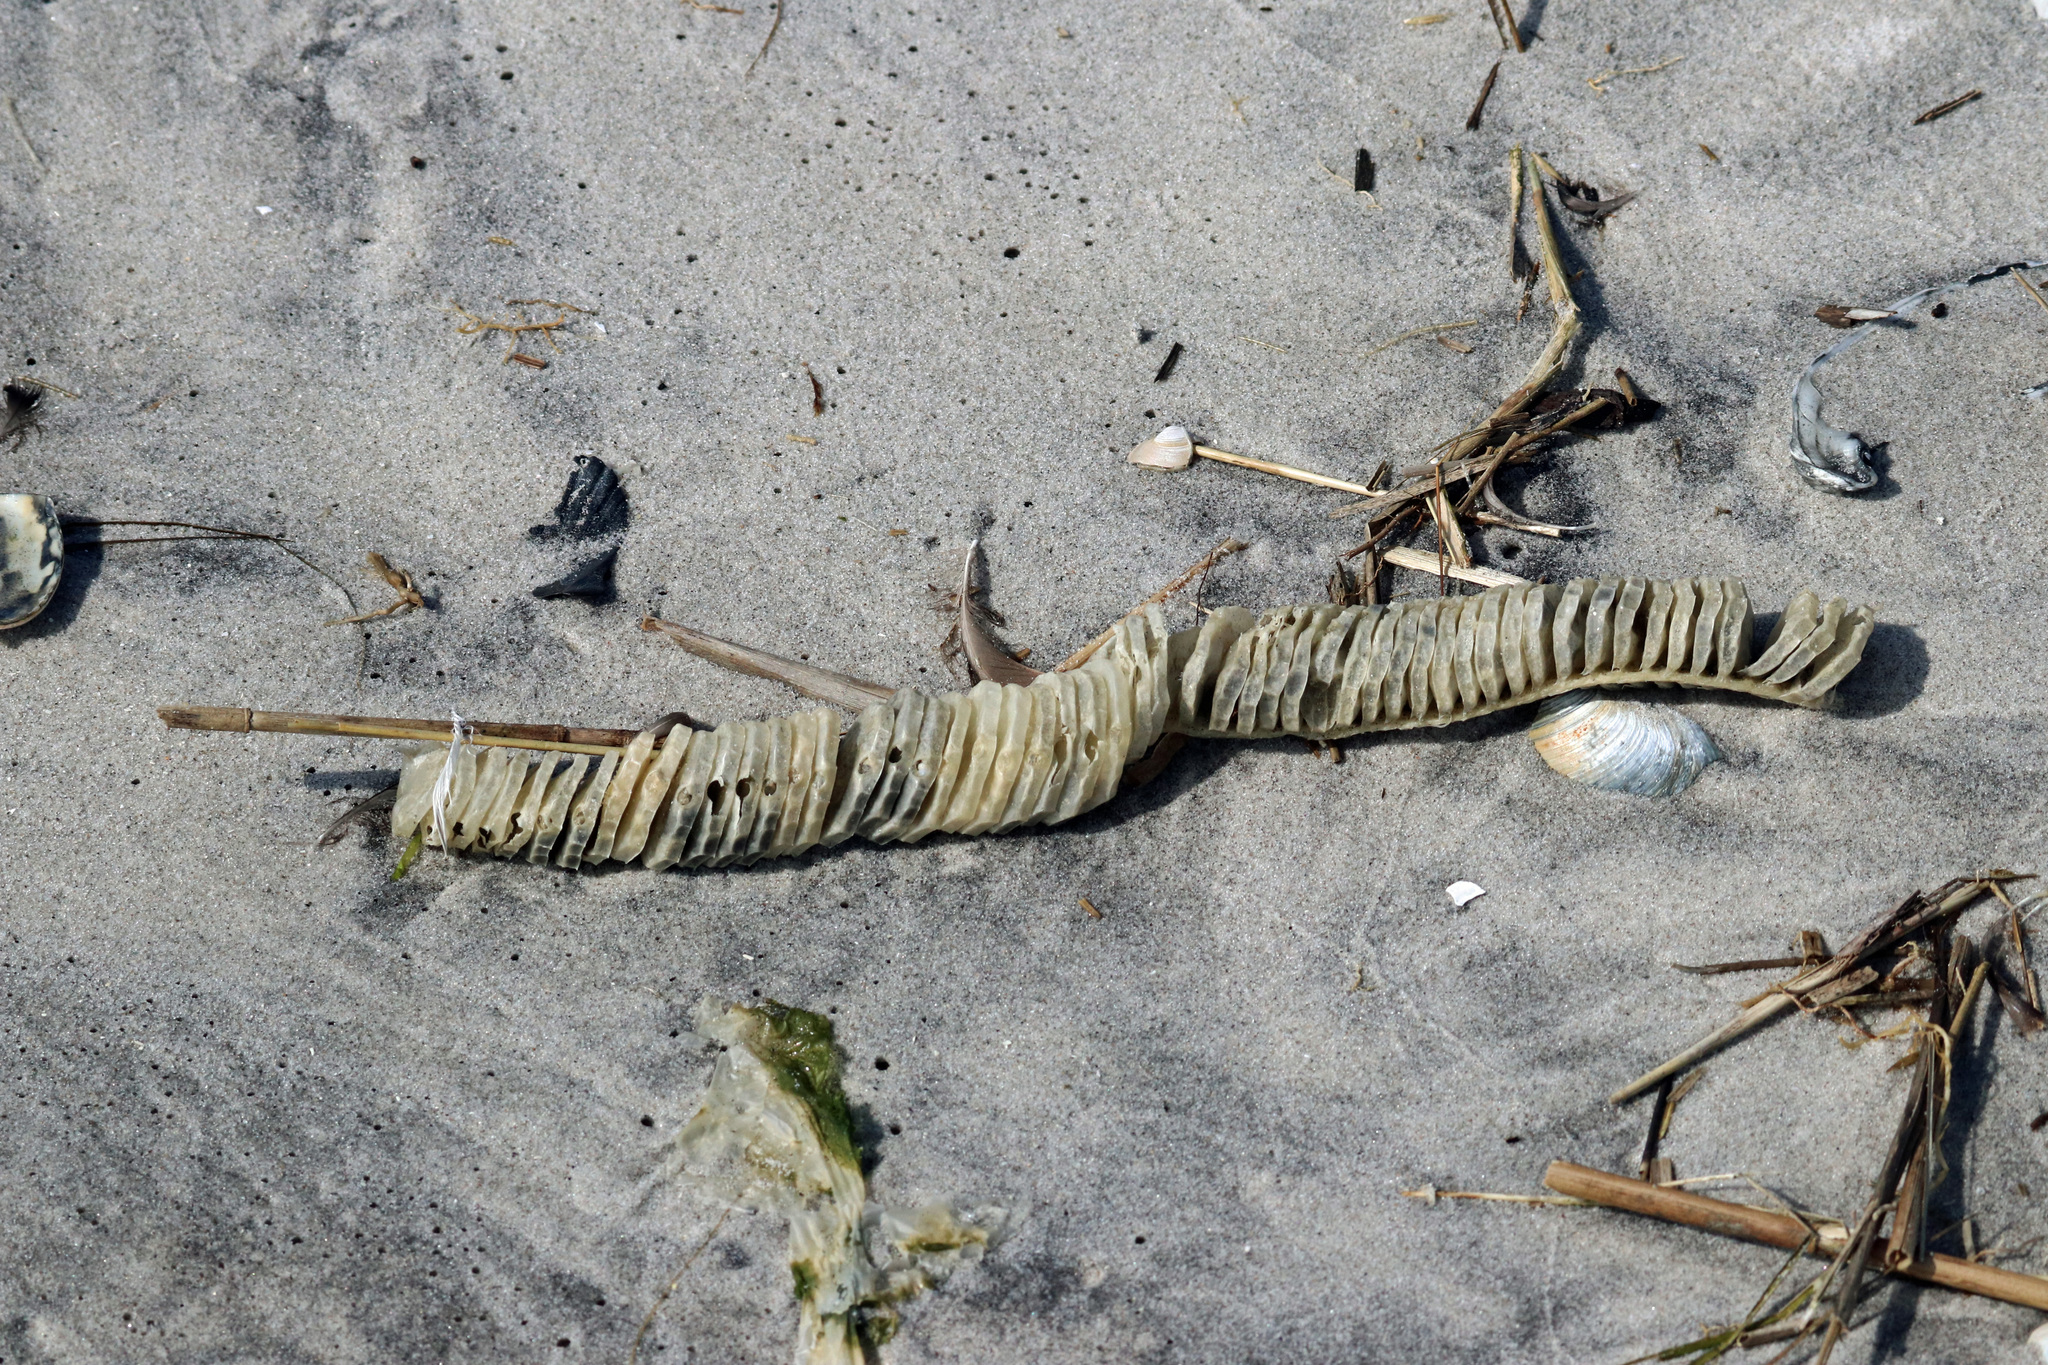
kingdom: Animalia
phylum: Mollusca
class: Gastropoda
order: Neogastropoda
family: Busyconidae
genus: Busycon
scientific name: Busycon carica
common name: Knobbed whelk
